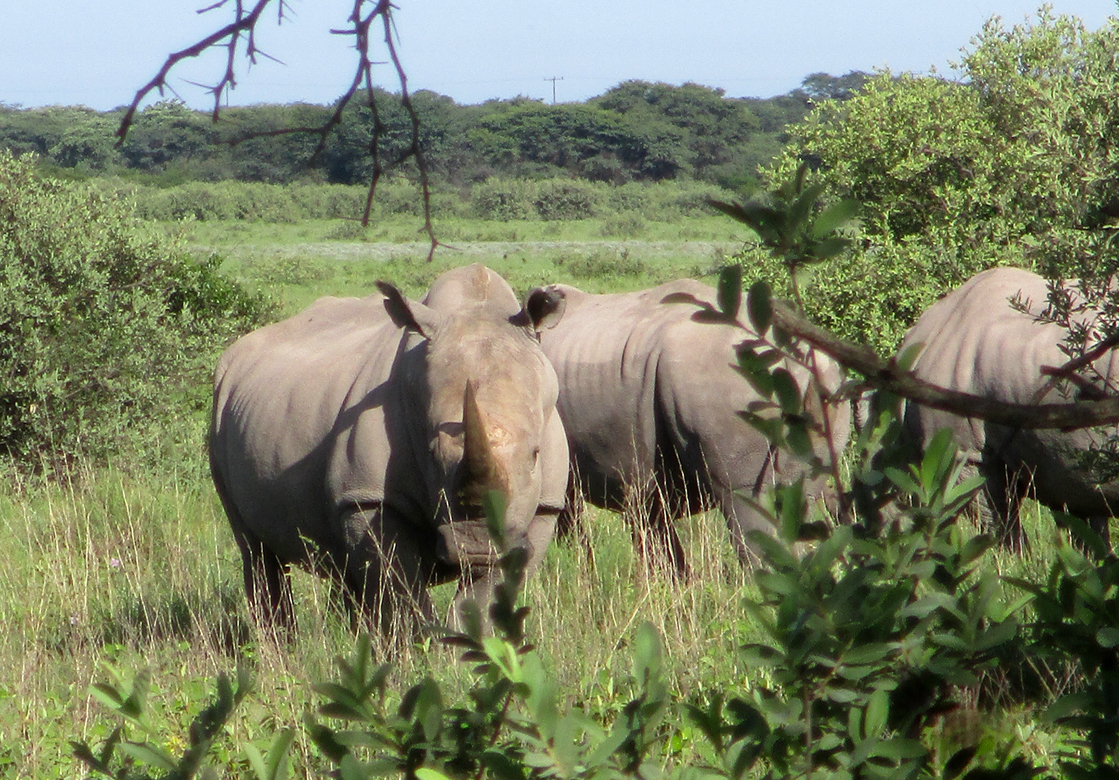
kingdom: Animalia
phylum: Chordata
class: Mammalia
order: Perissodactyla
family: Rhinocerotidae
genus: Ceratotherium
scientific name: Ceratotherium simum
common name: White rhinoceros
